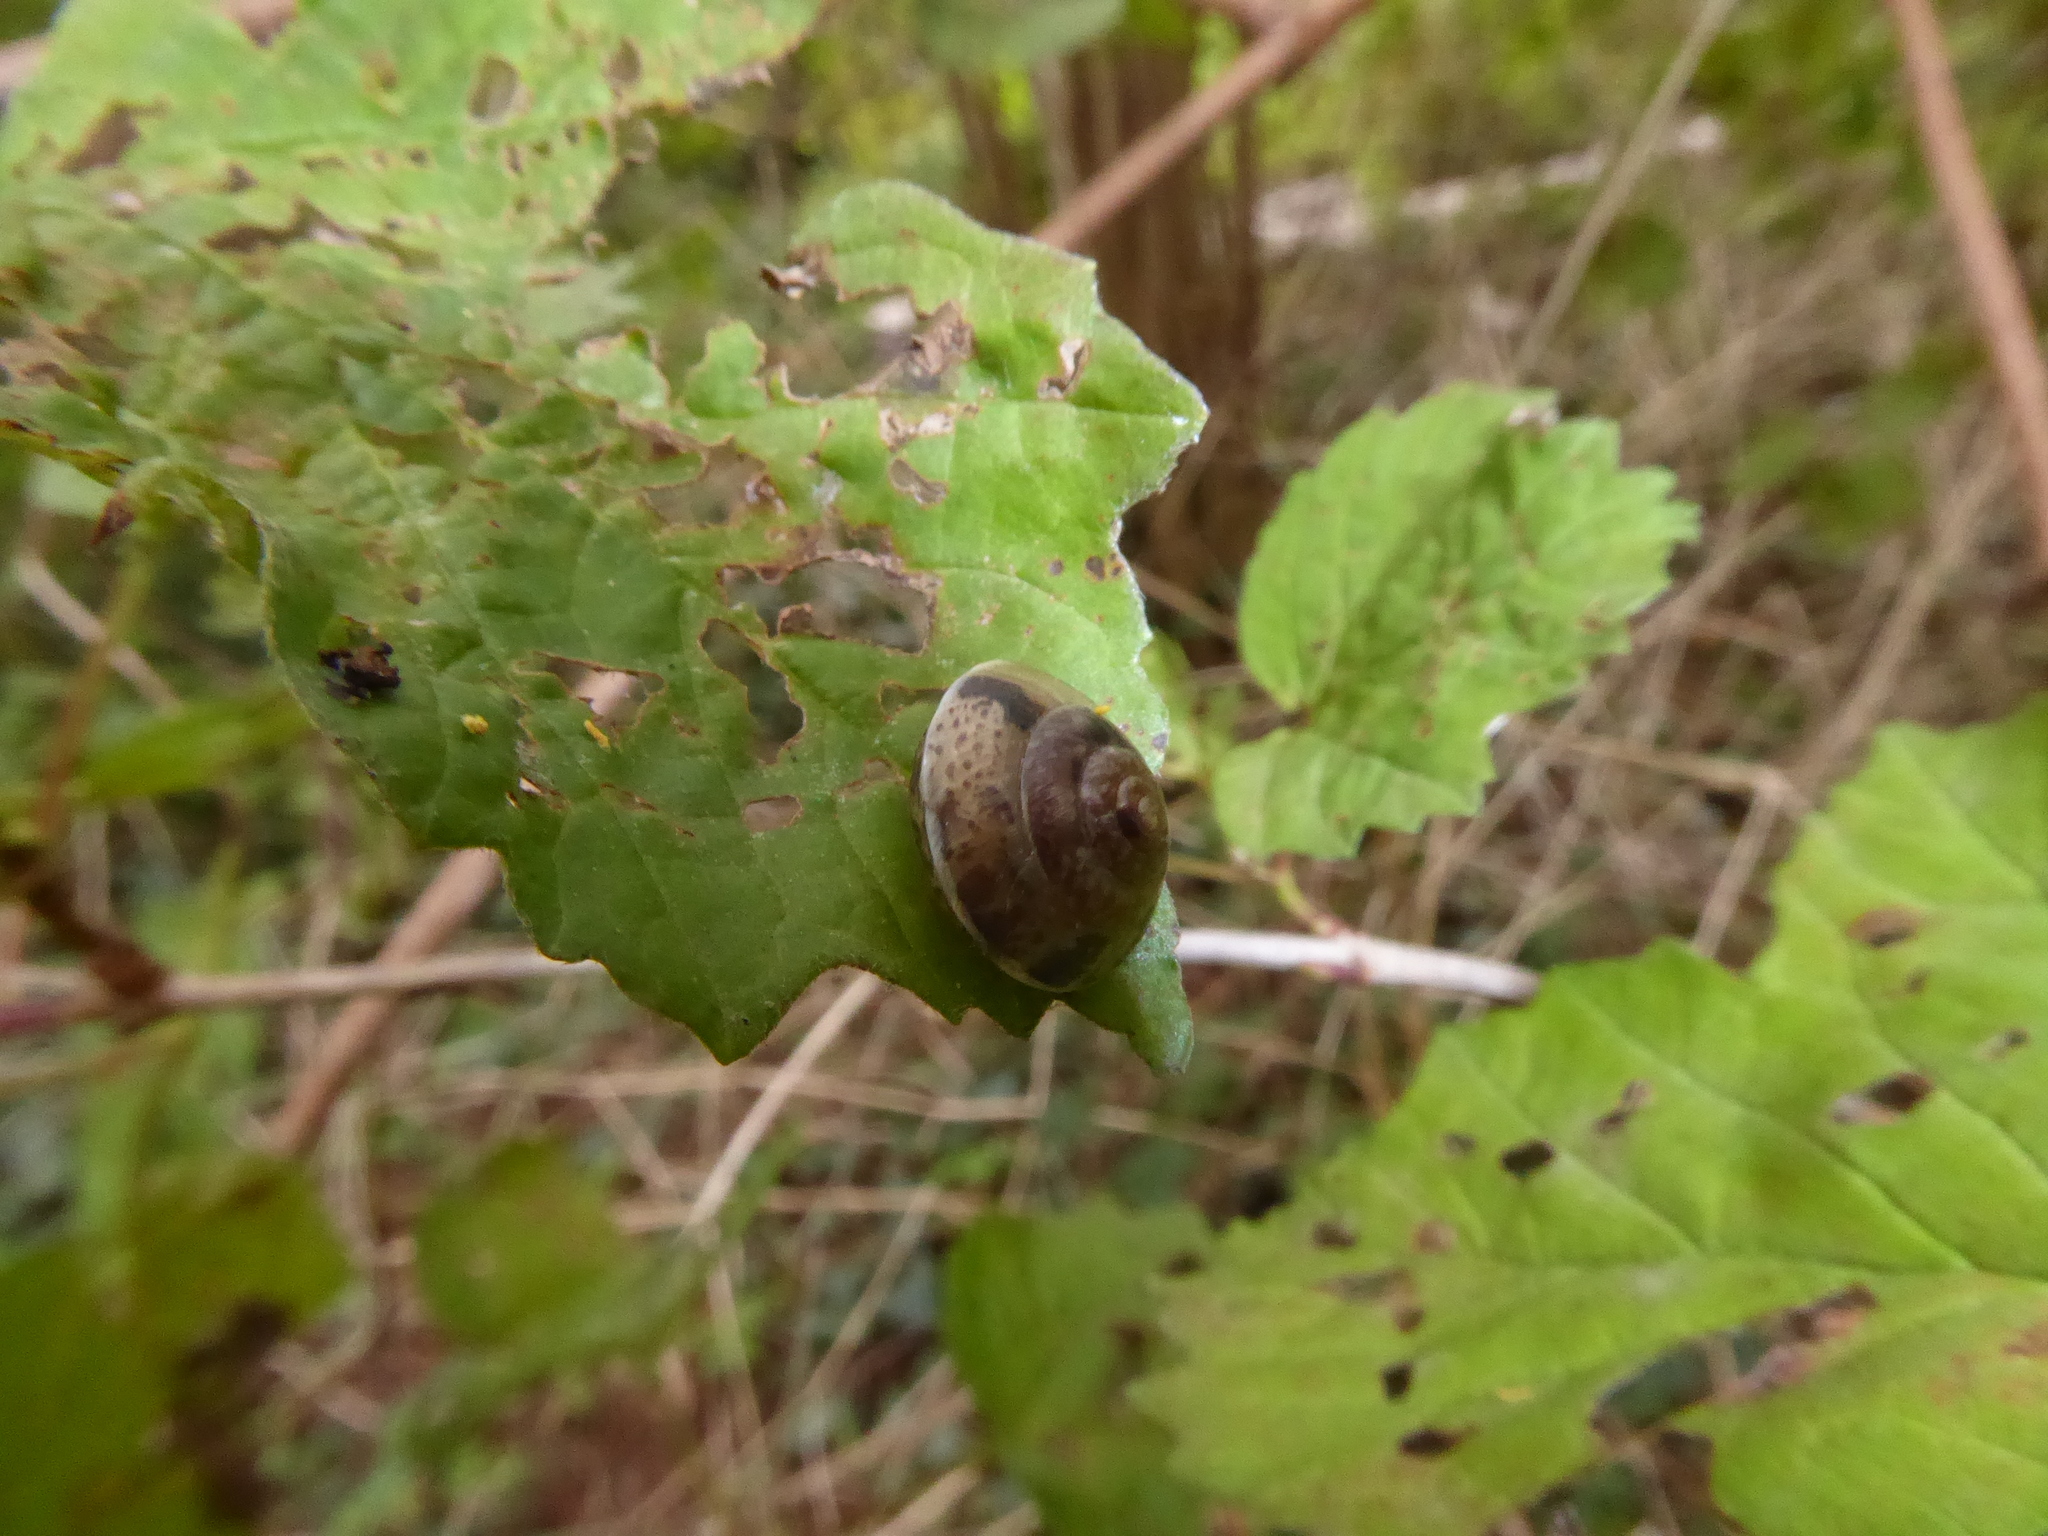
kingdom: Animalia
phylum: Mollusca
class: Gastropoda
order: Stylommatophora
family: Hygromiidae
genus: Hygromia
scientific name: Hygromia cinctella
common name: Girdled snail
